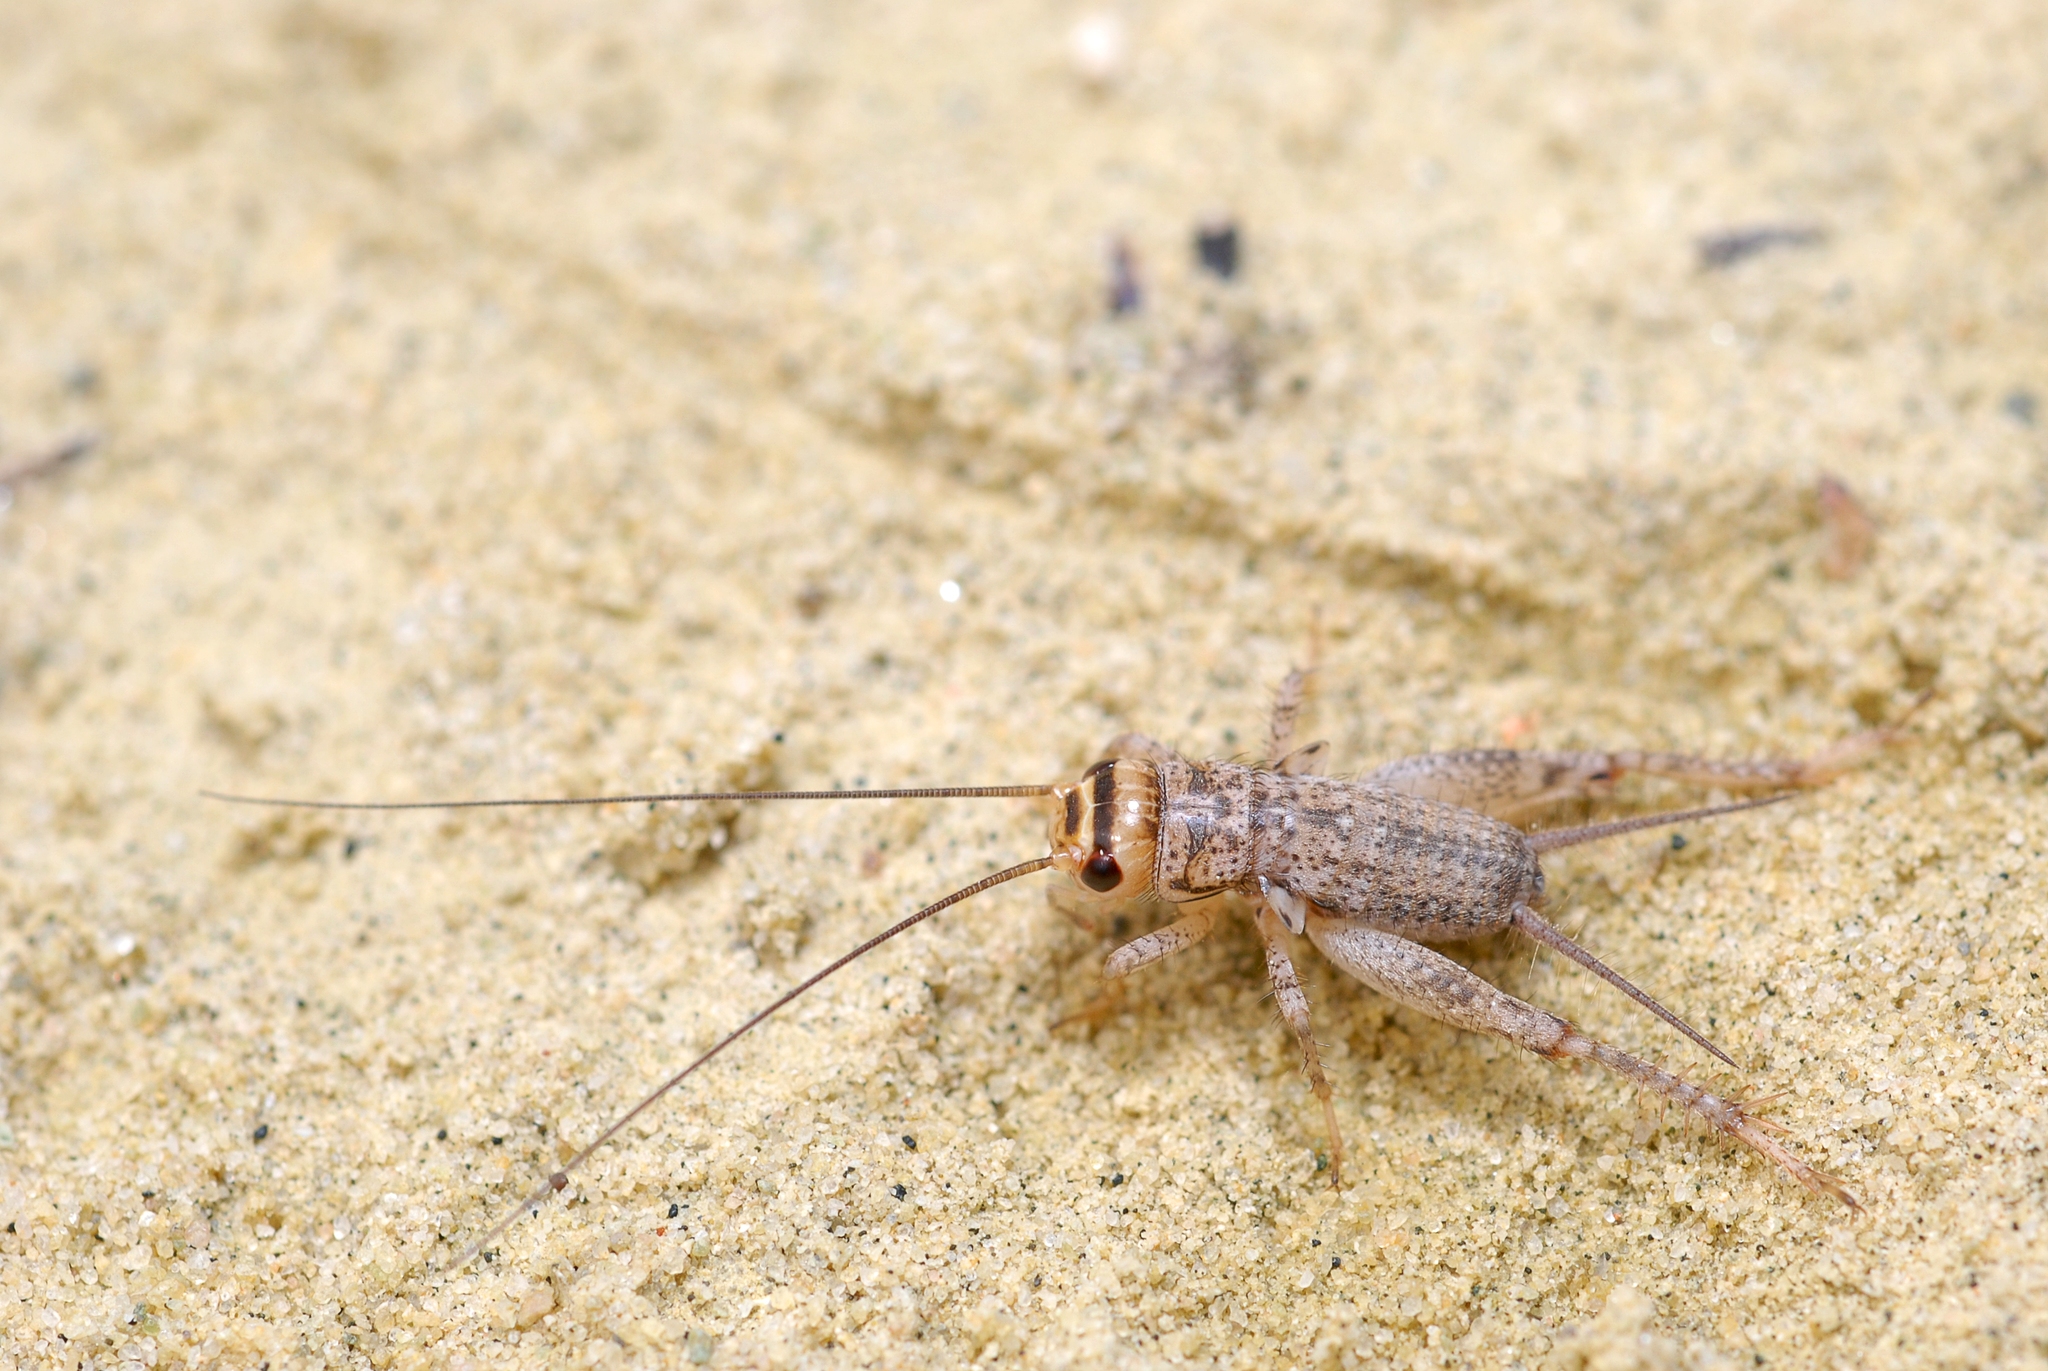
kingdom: Animalia
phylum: Arthropoda
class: Insecta
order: Orthoptera
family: Gryllidae
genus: Eumodicogryllus
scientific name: Eumodicogryllus bordigalensis
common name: Bordeaux cricket
